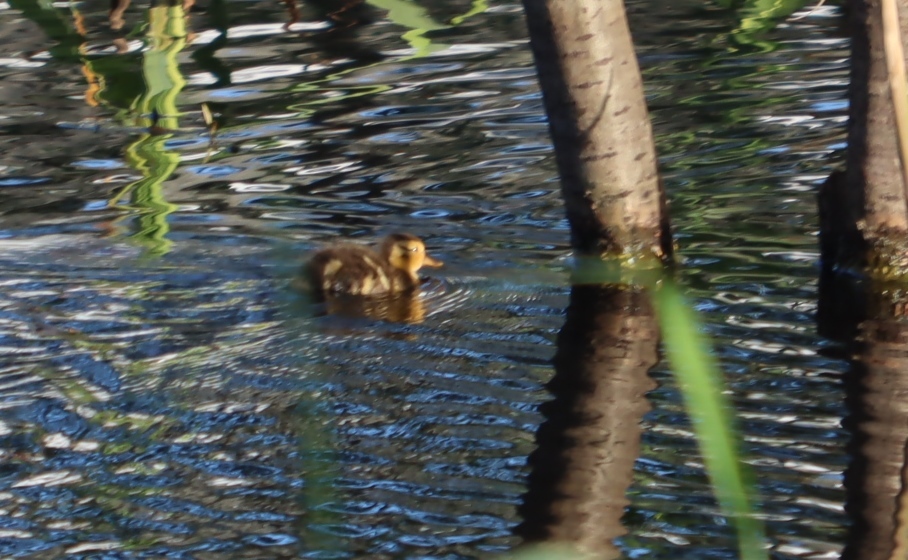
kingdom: Animalia
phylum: Chordata
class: Aves
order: Anseriformes
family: Anatidae
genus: Alopochen
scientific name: Alopochen aegyptiaca
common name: Egyptian goose
